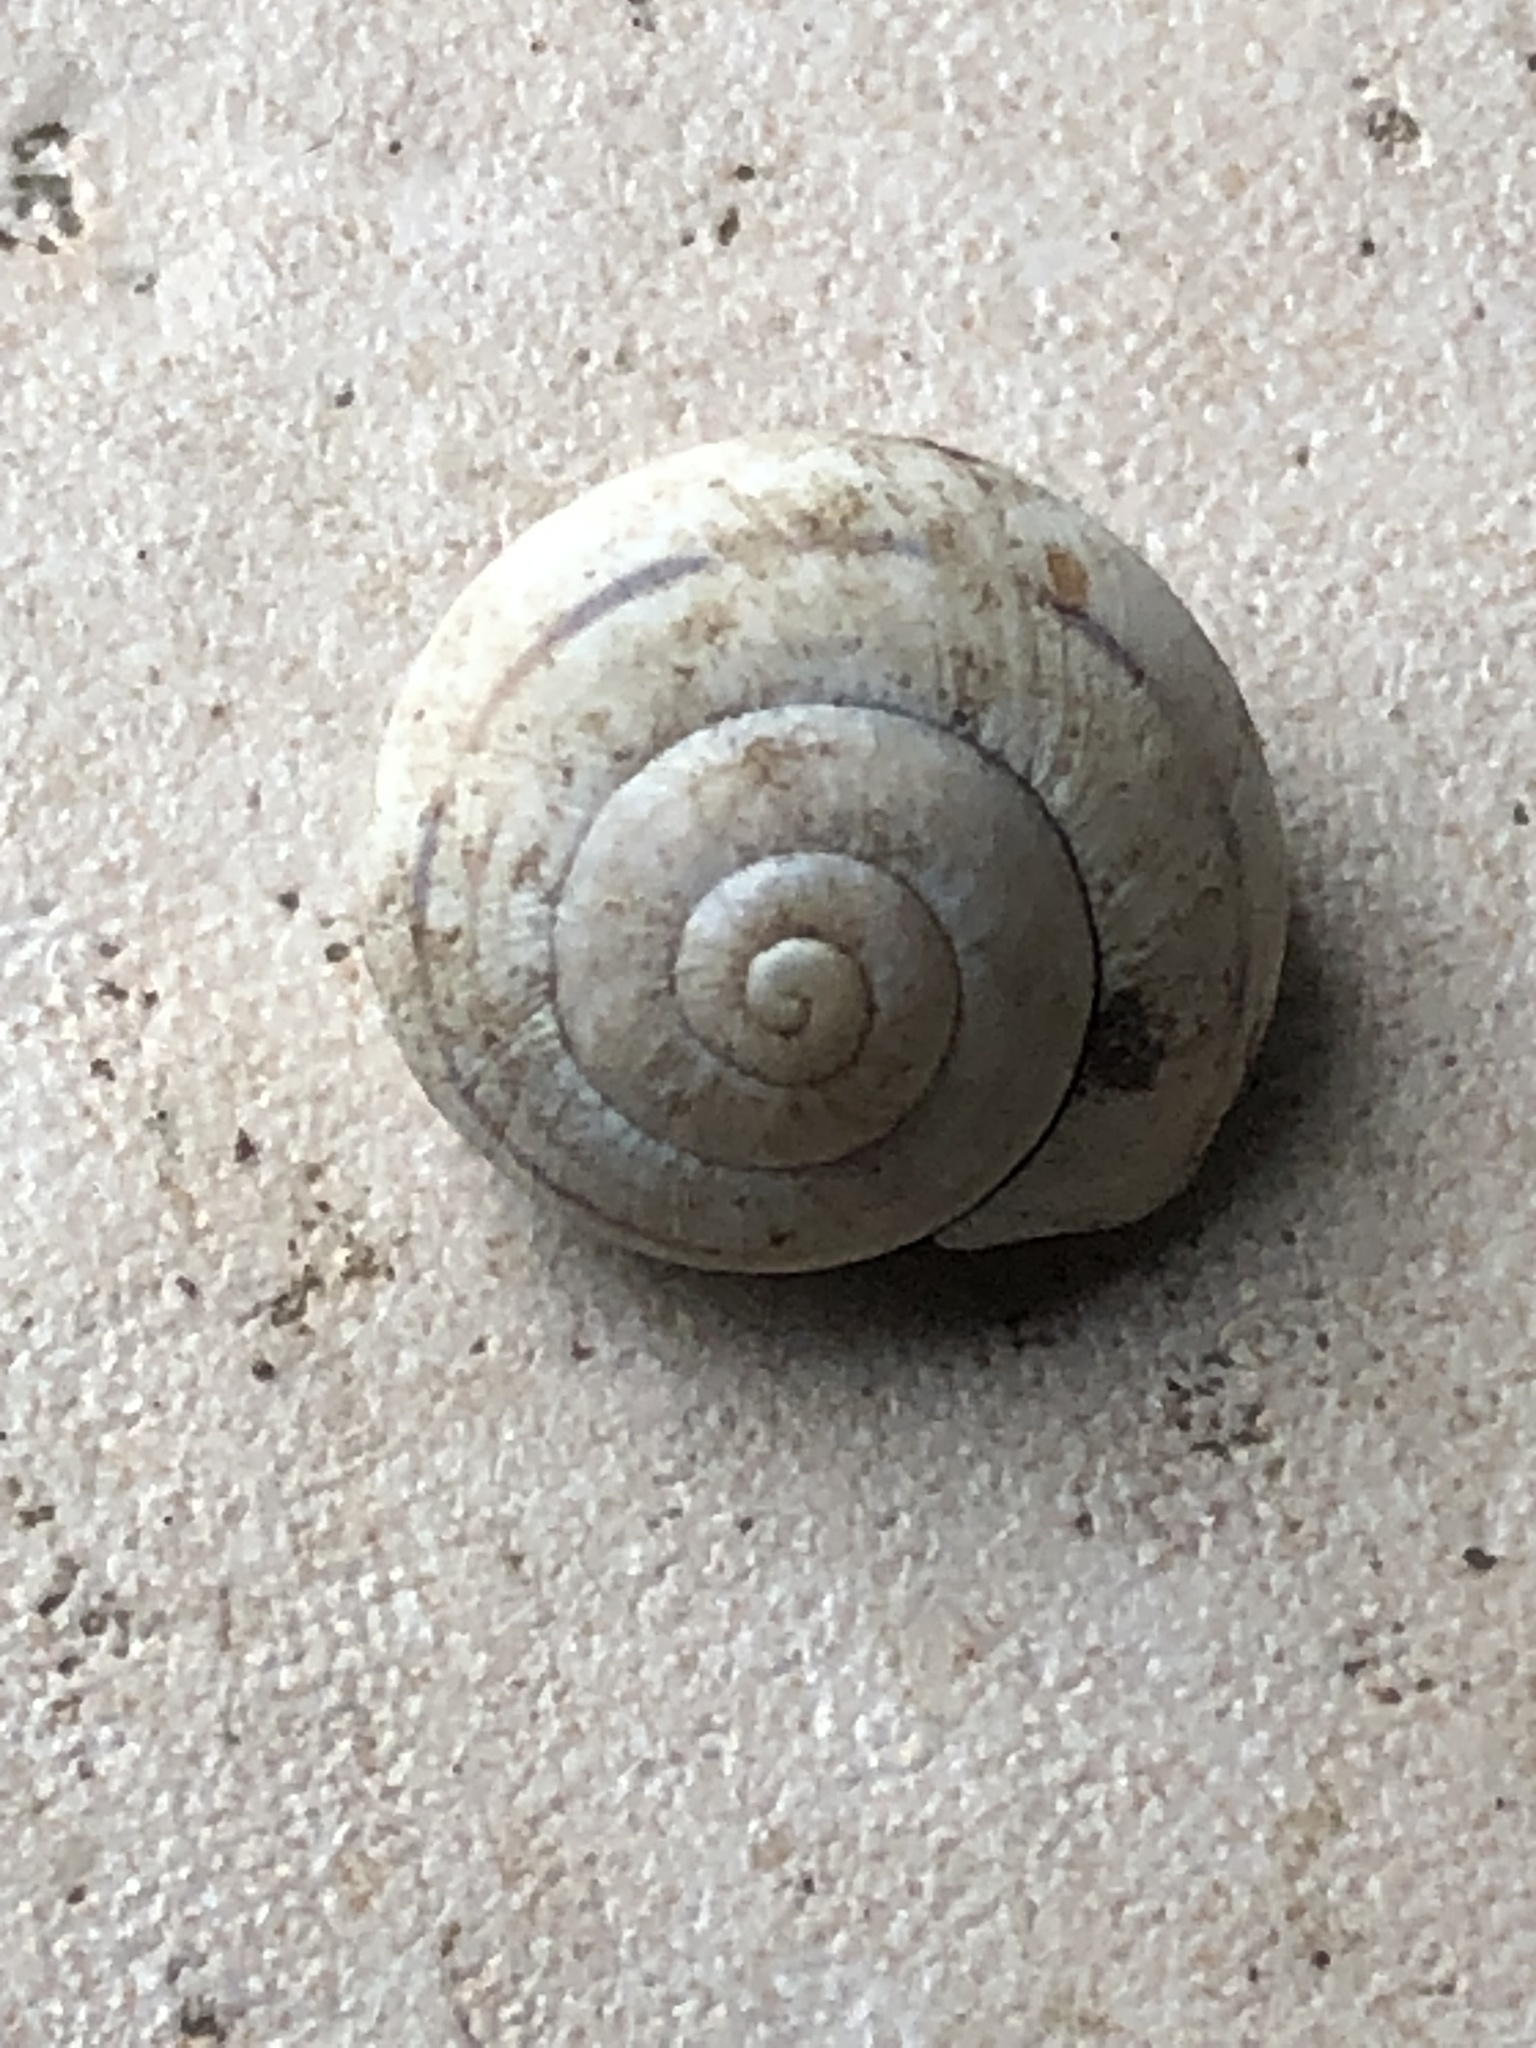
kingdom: Animalia
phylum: Mollusca
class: Gastropoda
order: Stylommatophora
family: Helicidae
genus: Cepaea
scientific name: Cepaea nemoralis
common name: Grovesnail
